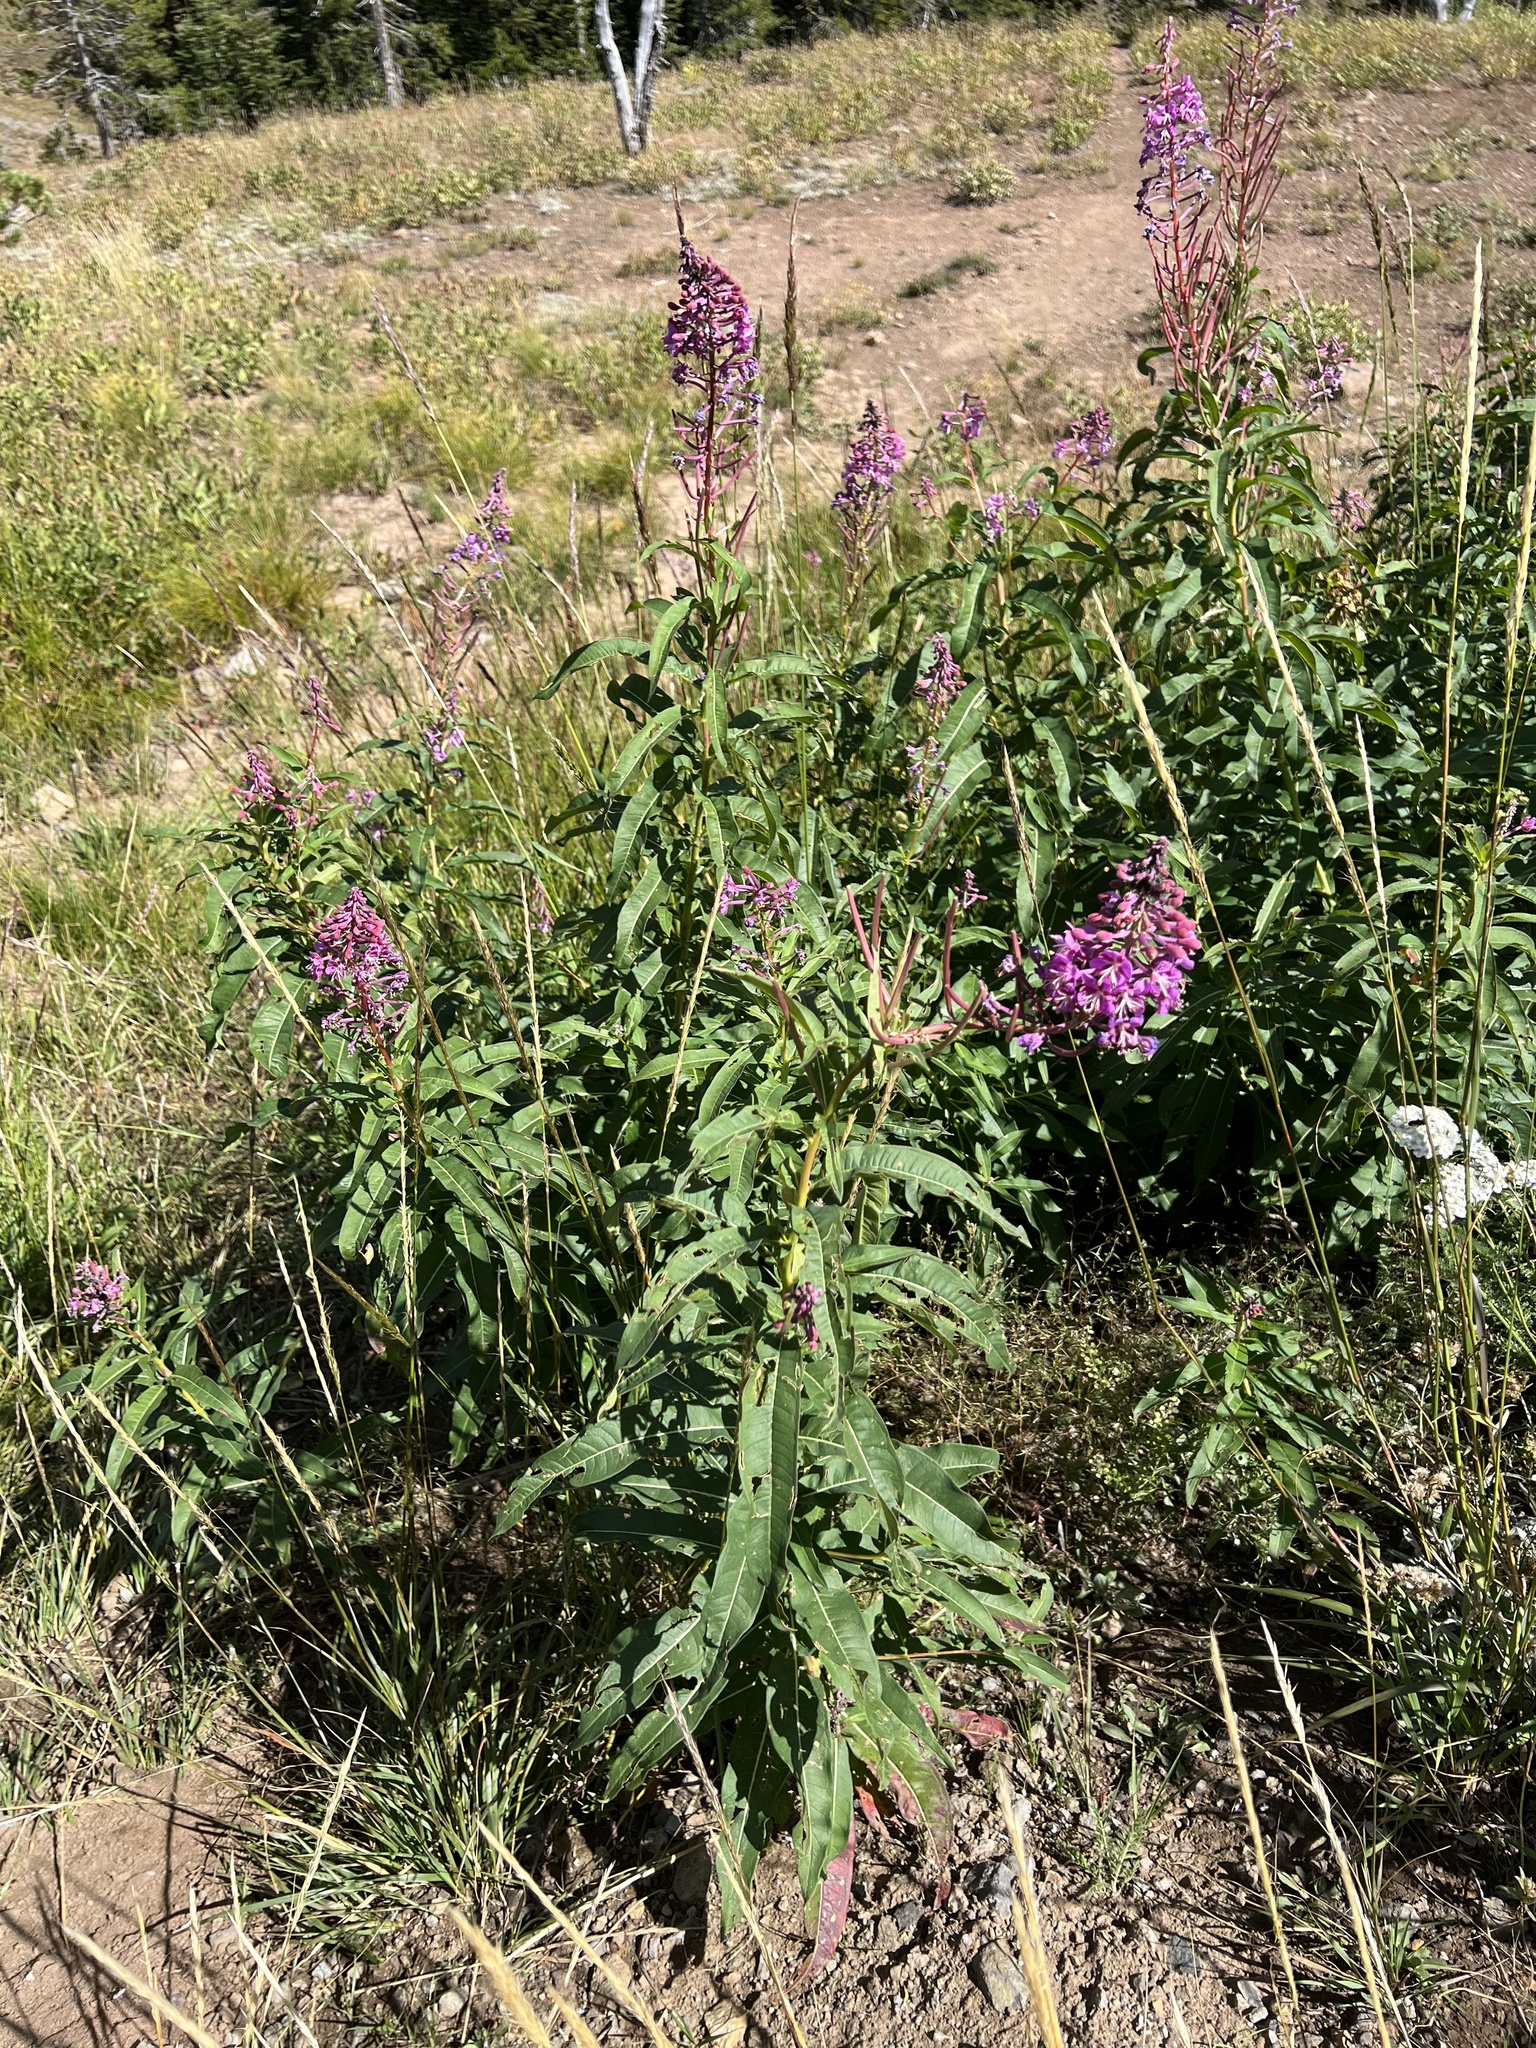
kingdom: Plantae
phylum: Tracheophyta
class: Magnoliopsida
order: Myrtales
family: Onagraceae
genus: Chamaenerion
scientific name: Chamaenerion angustifolium
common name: Fireweed
